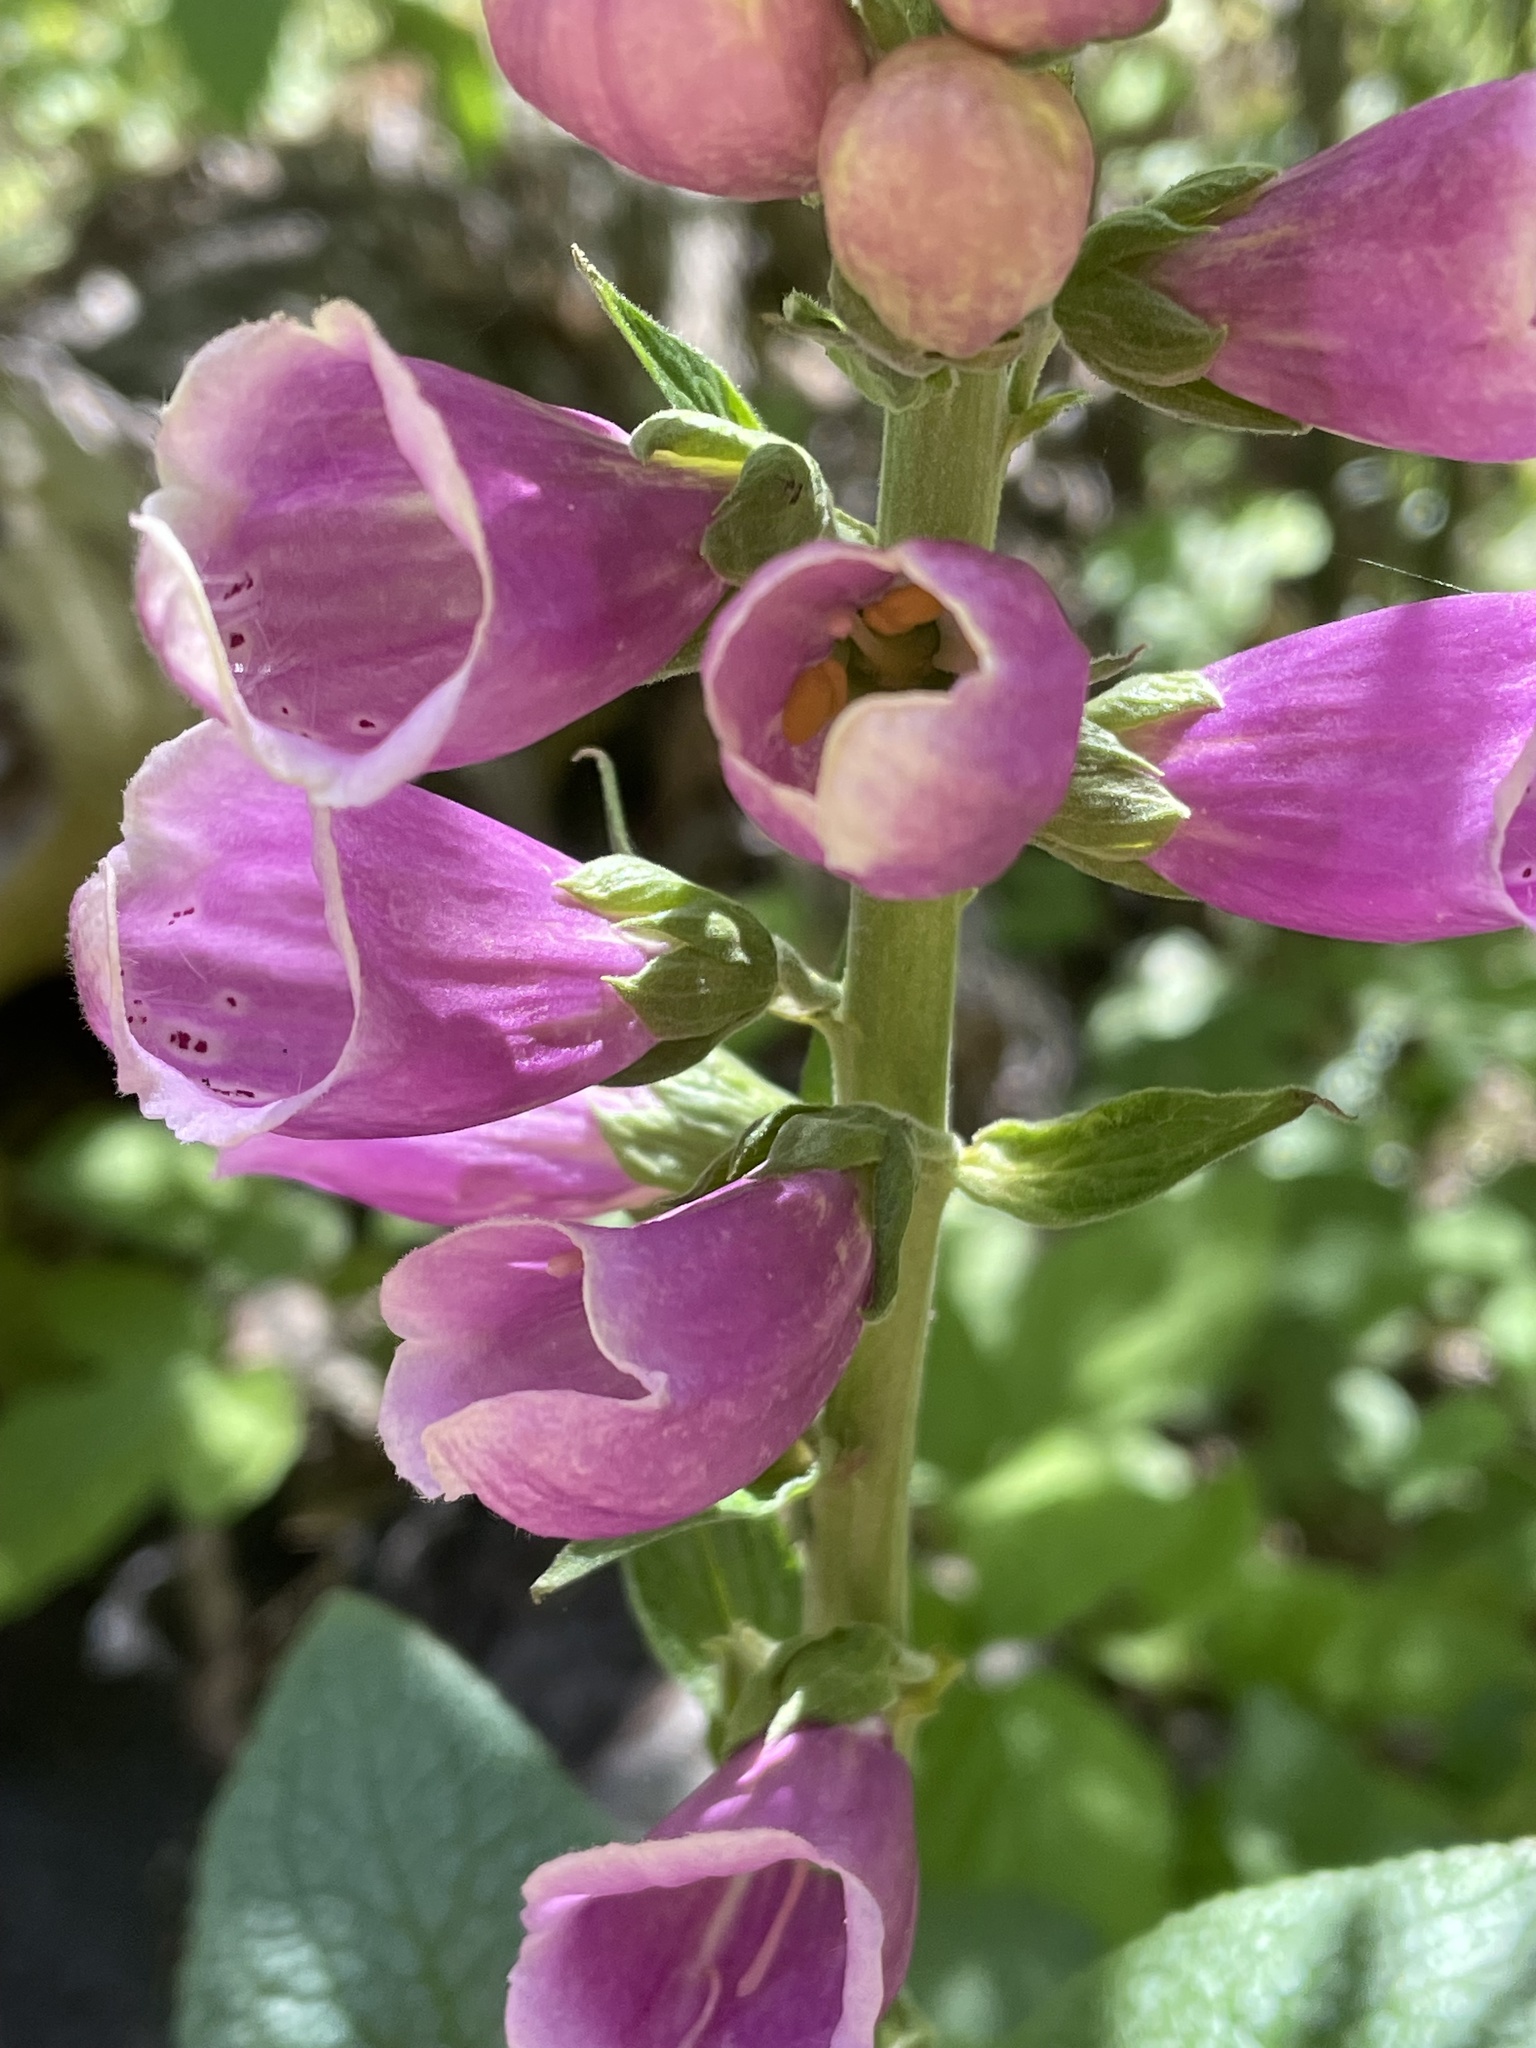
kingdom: Plantae
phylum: Tracheophyta
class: Magnoliopsida
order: Lamiales
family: Plantaginaceae
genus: Digitalis
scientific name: Digitalis purpurea
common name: Foxglove
